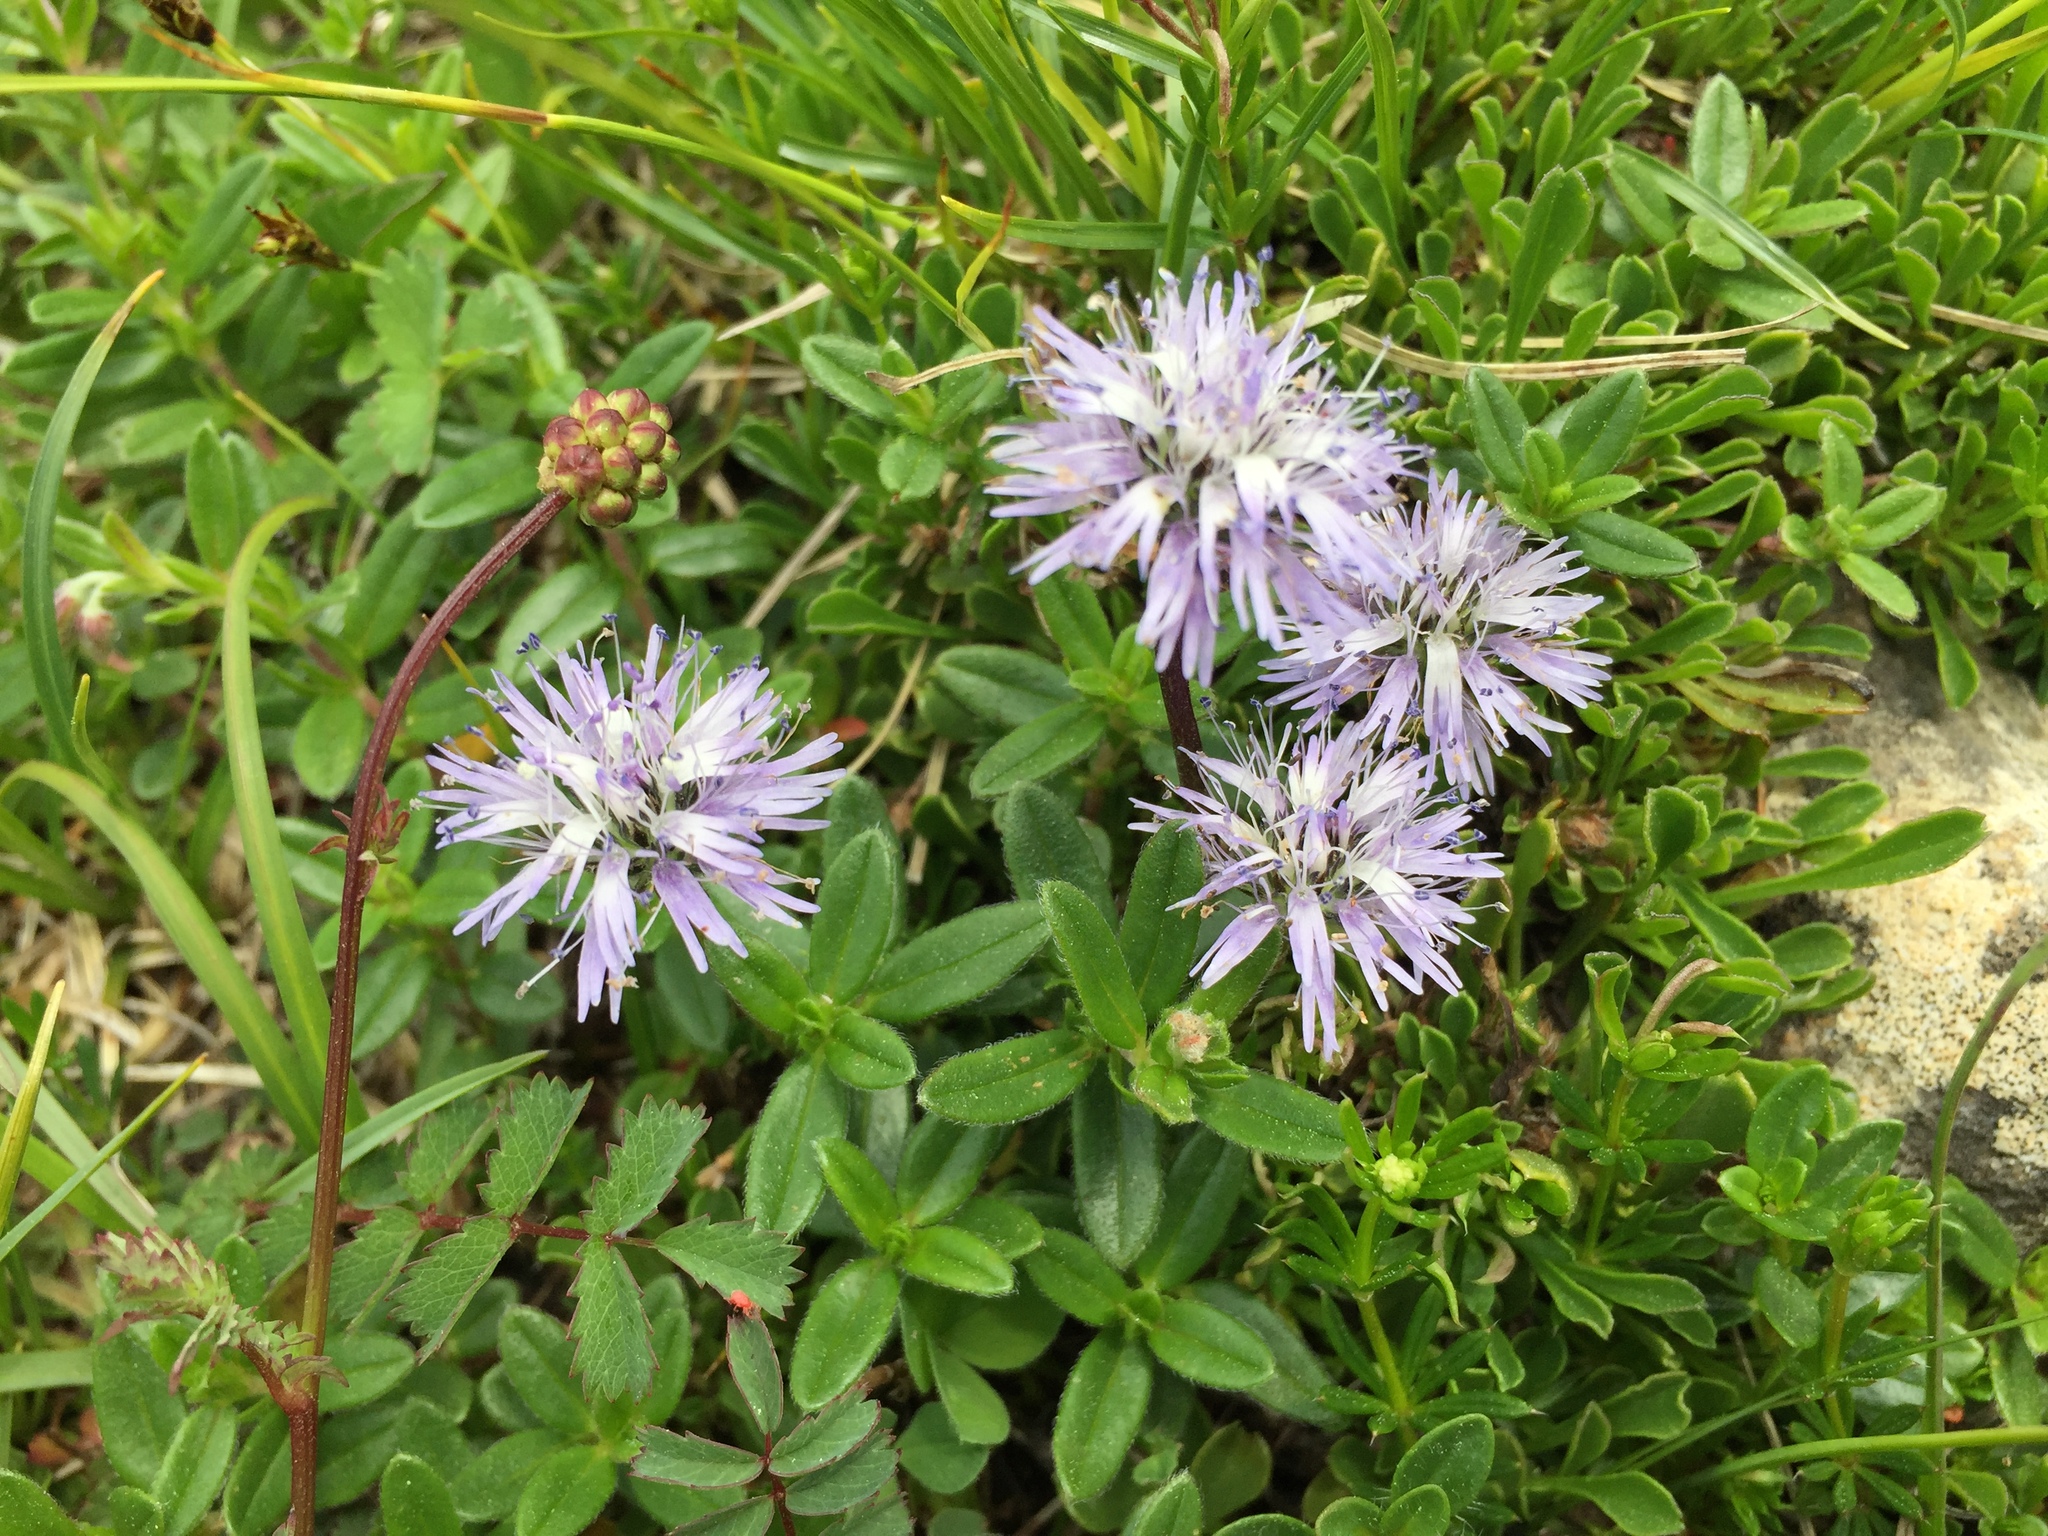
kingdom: Plantae
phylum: Tracheophyta
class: Magnoliopsida
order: Lamiales
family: Plantaginaceae
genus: Globularia
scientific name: Globularia cordifolia
